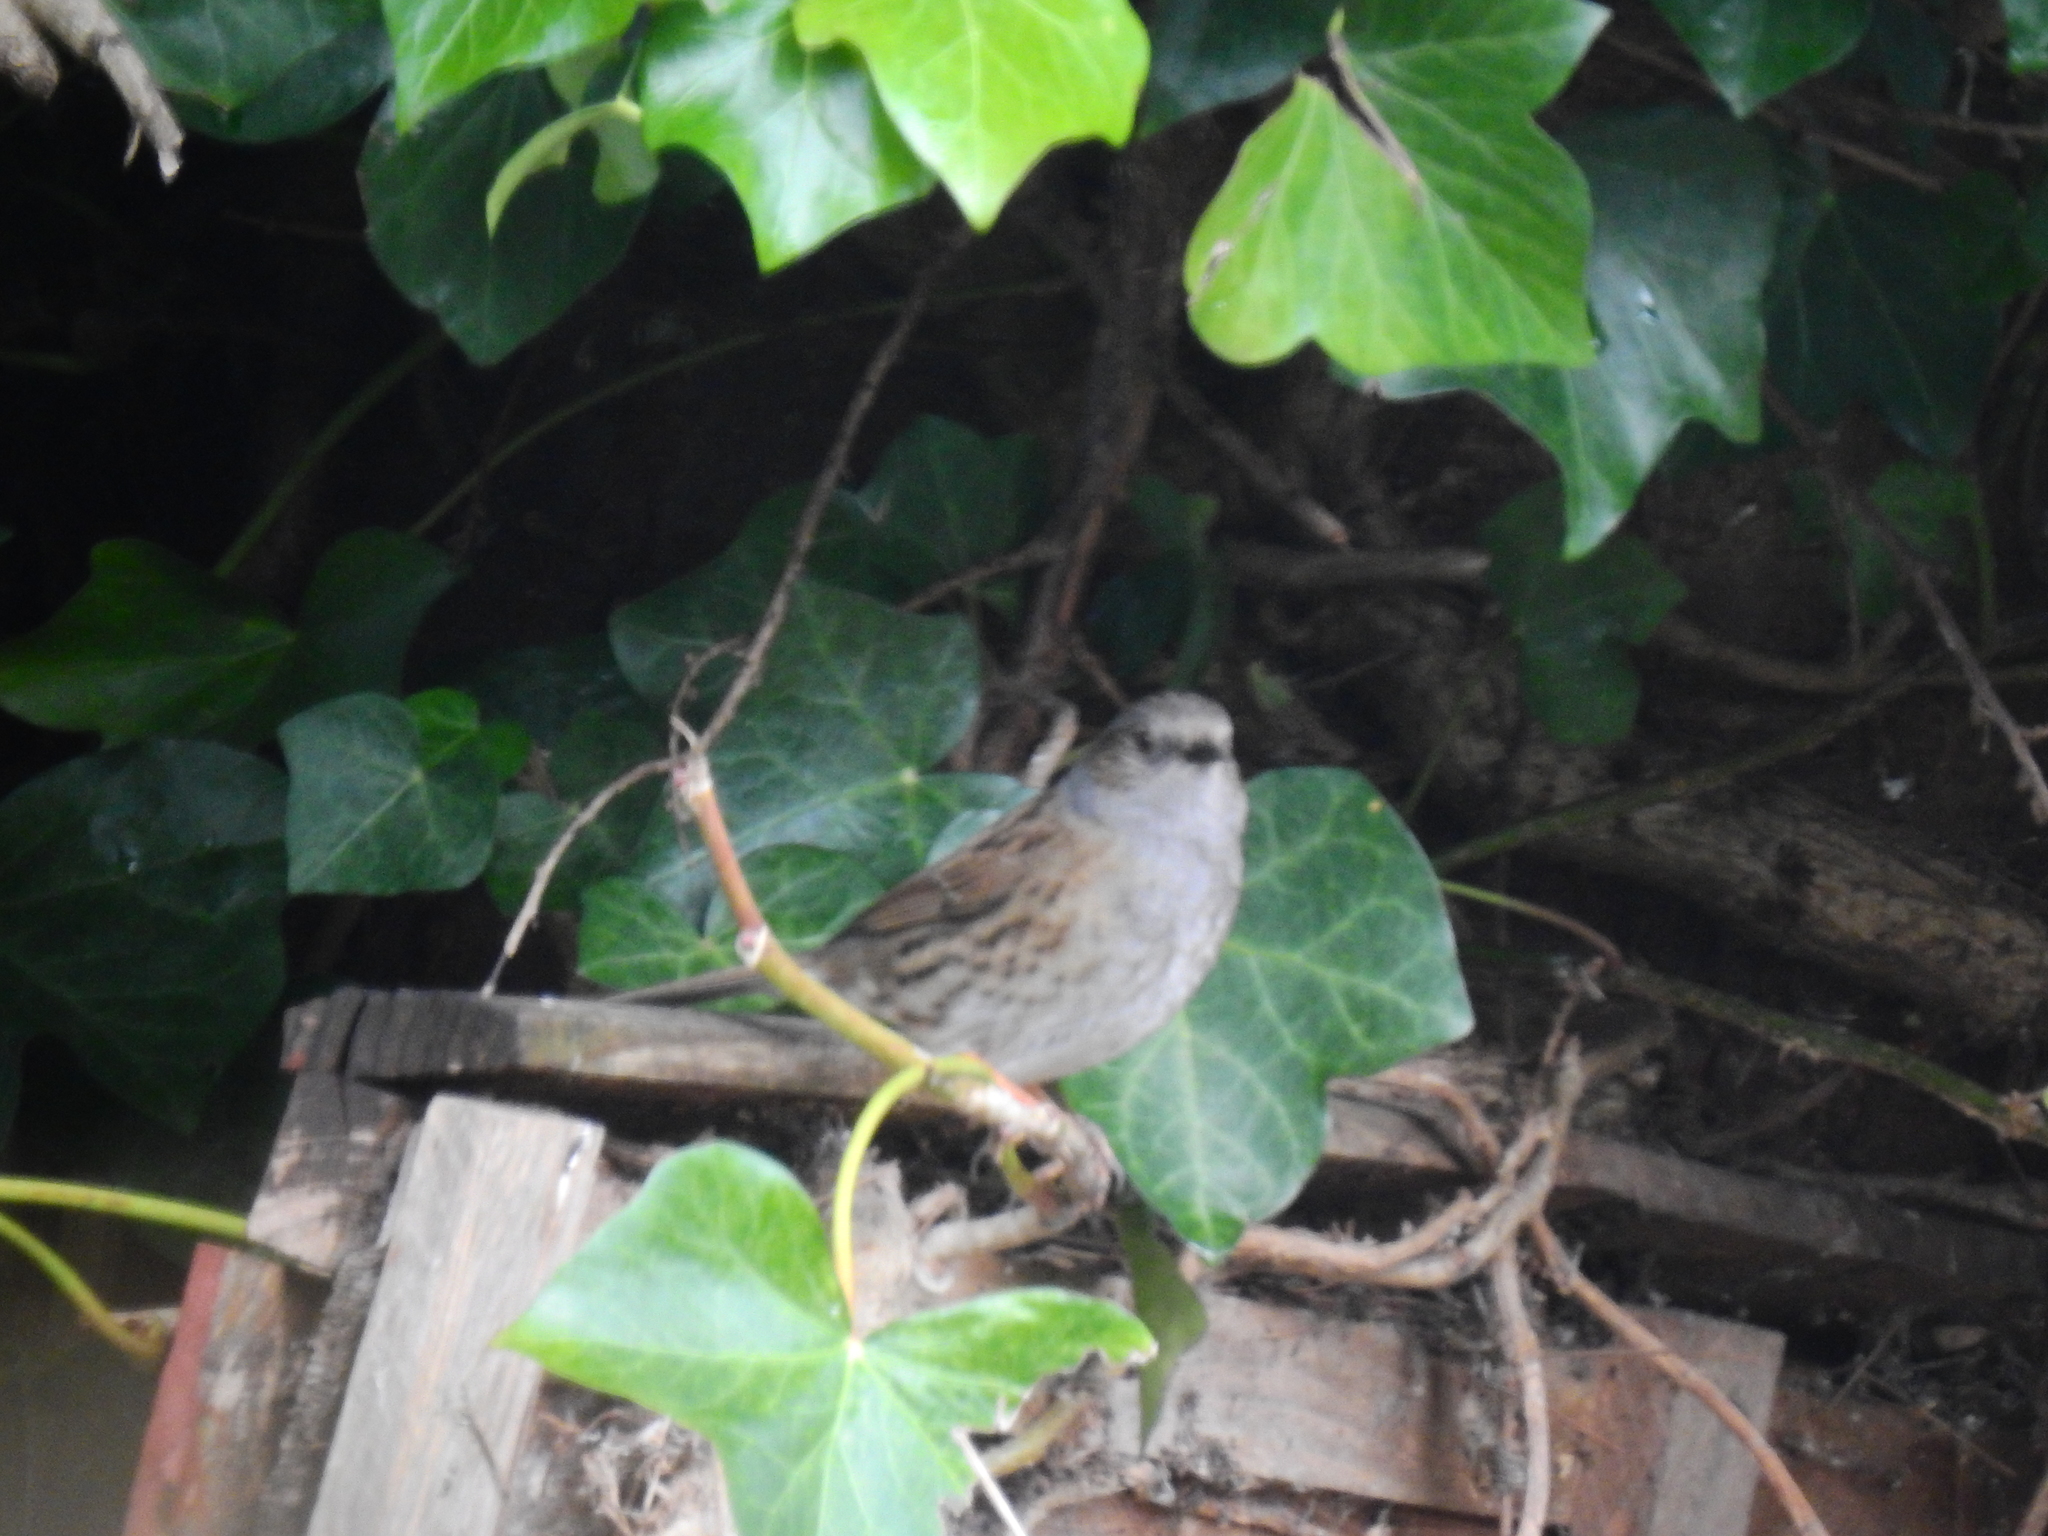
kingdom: Animalia
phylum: Chordata
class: Aves
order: Passeriformes
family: Prunellidae
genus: Prunella
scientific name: Prunella modularis
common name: Dunnock
